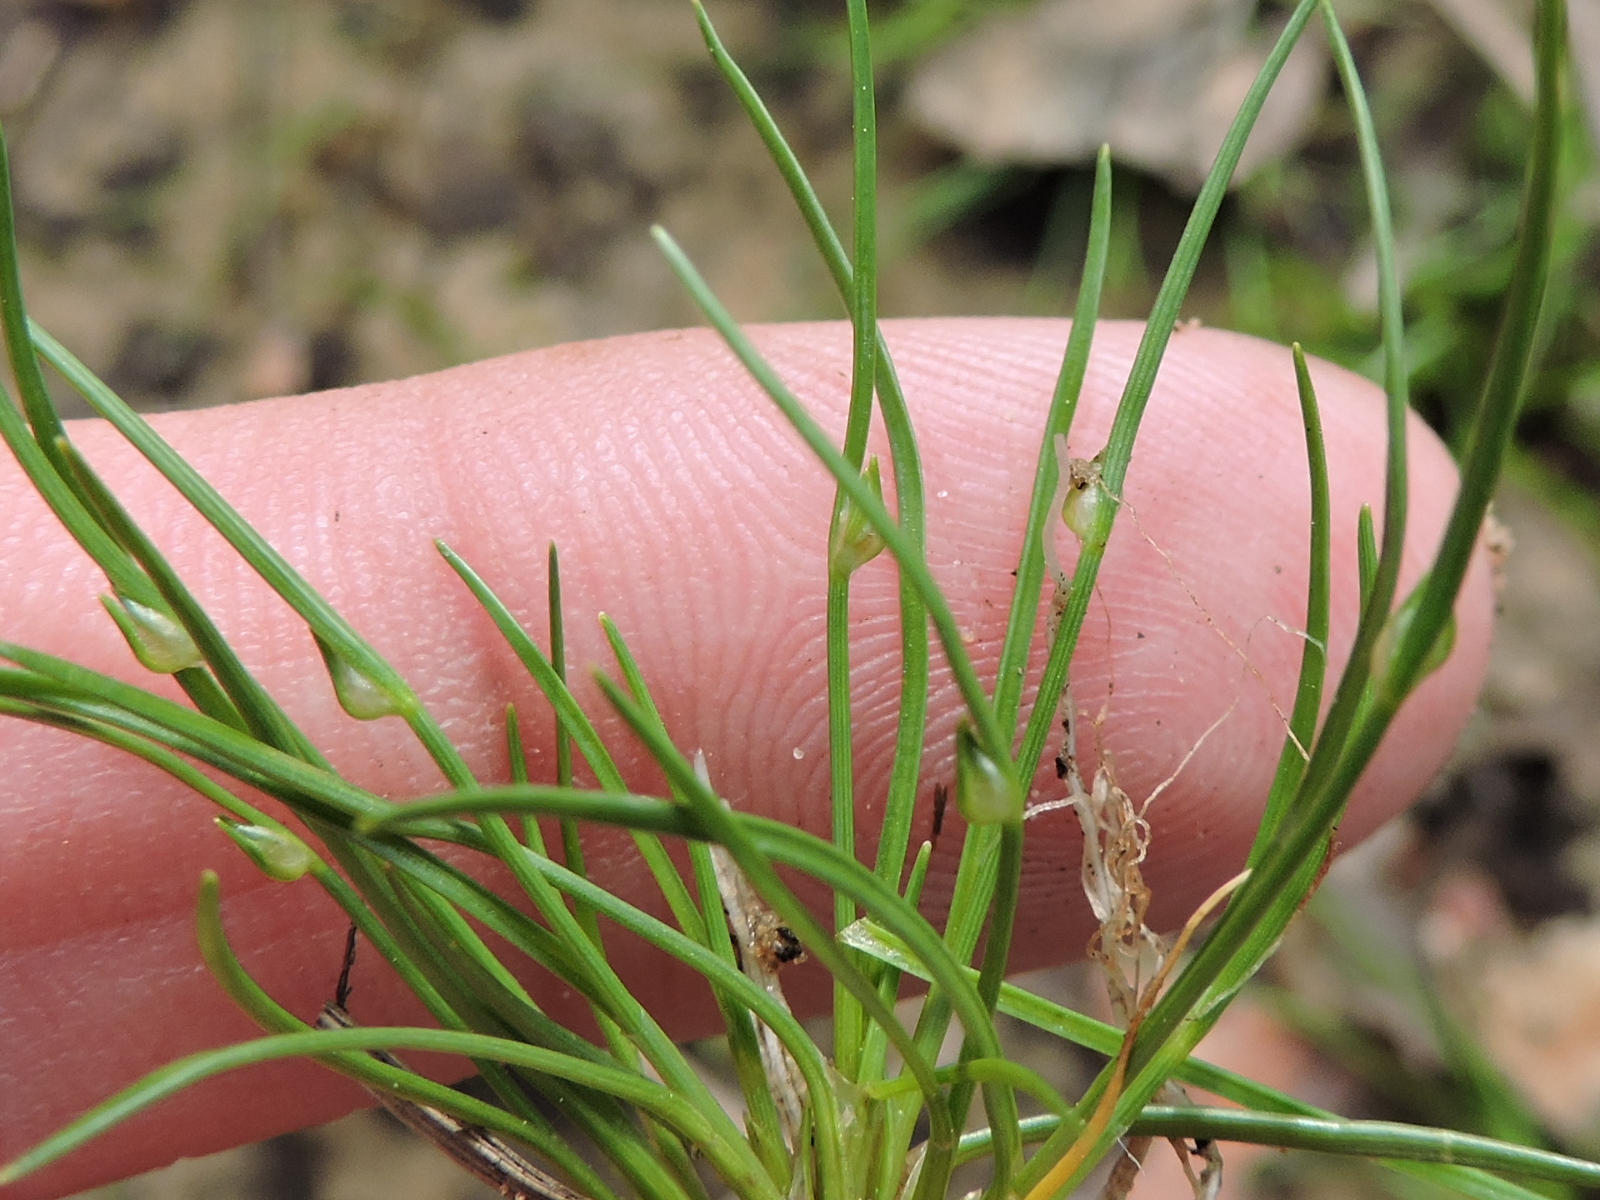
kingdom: Plantae
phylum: Tracheophyta
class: Liliopsida
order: Poales
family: Cyperaceae
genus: Isolepis
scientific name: Isolepis carinata
